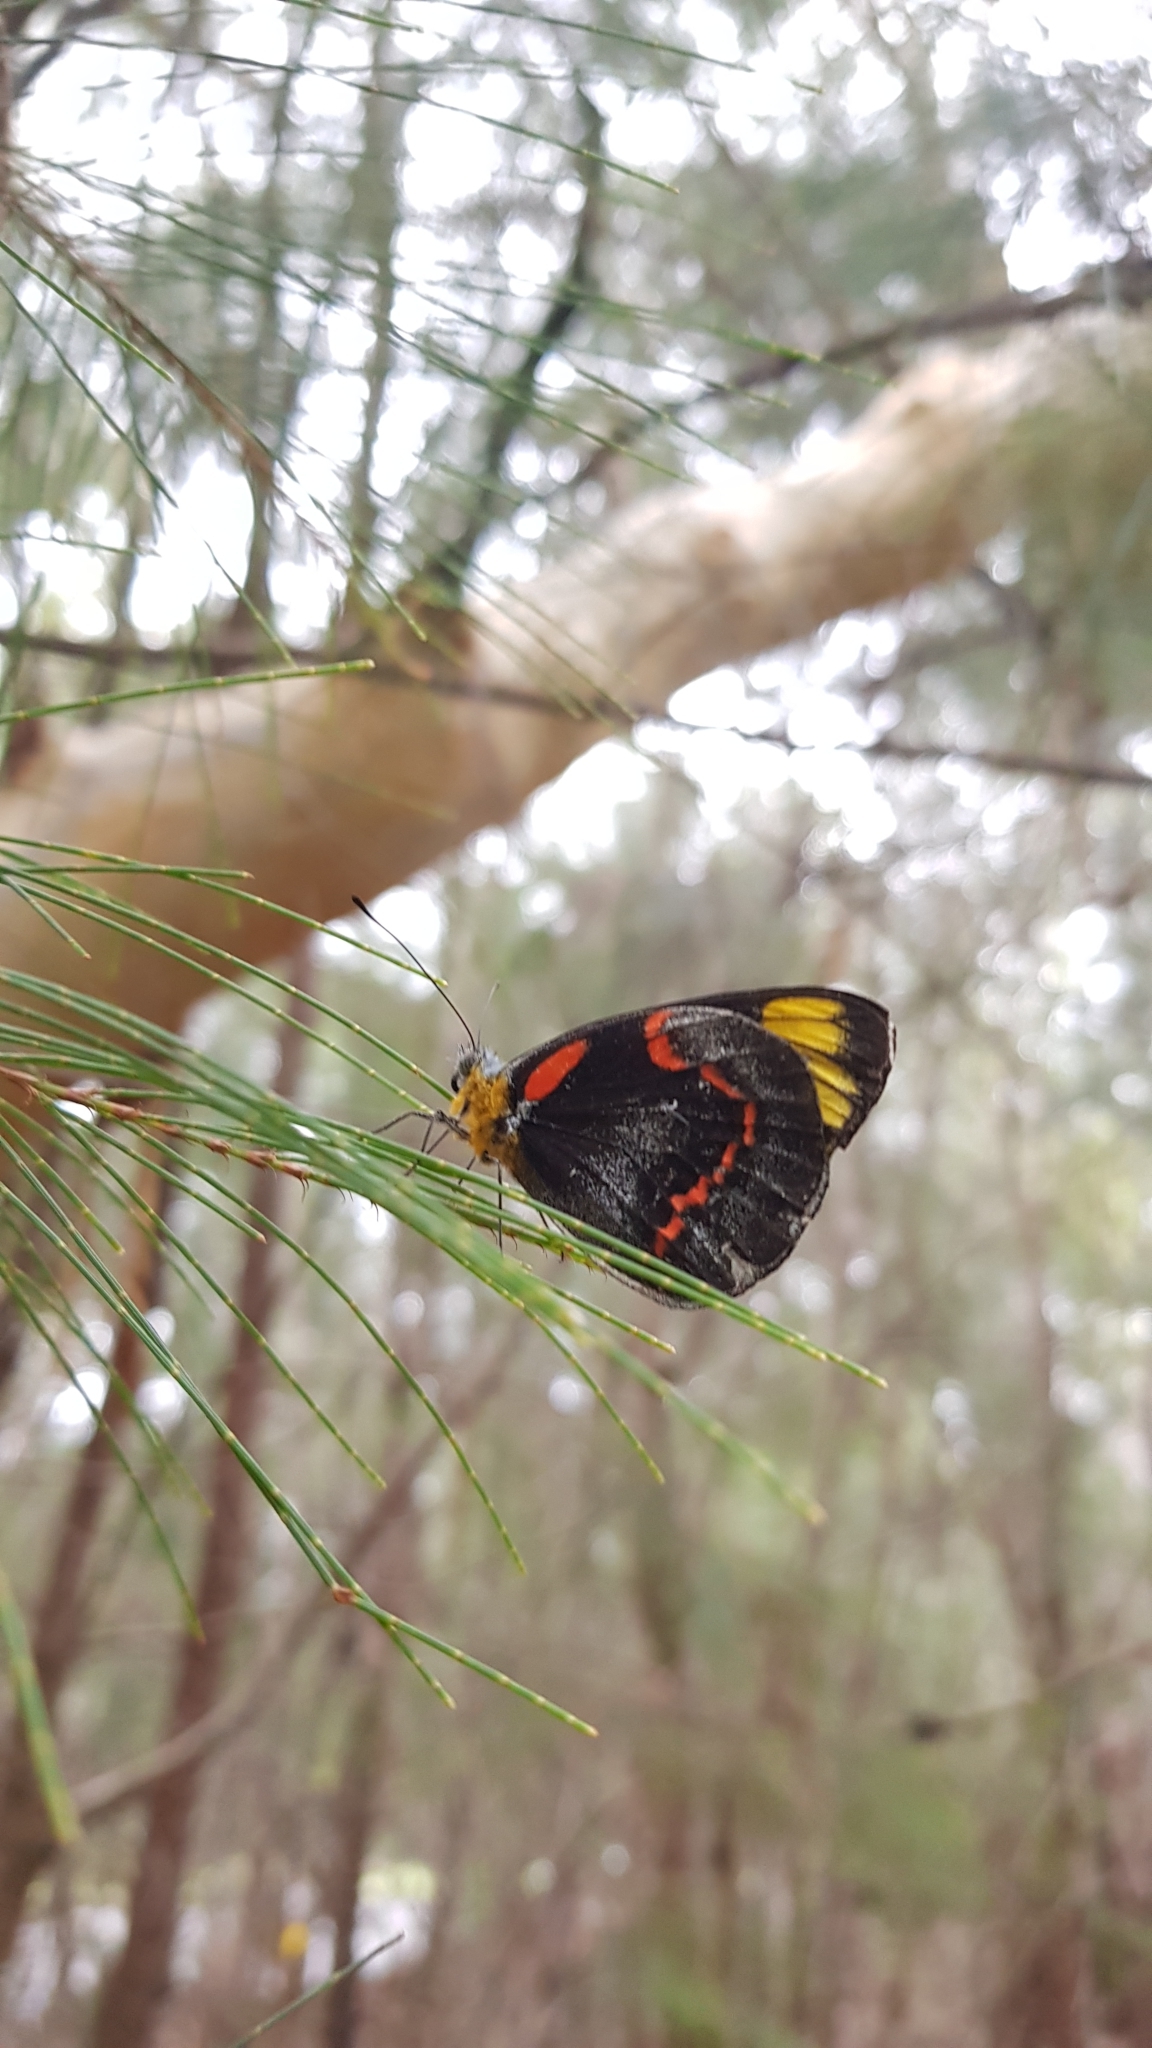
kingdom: Animalia
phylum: Arthropoda
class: Insecta
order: Lepidoptera
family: Pieridae
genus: Delias
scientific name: Delias nigrina
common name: Black jezebel
